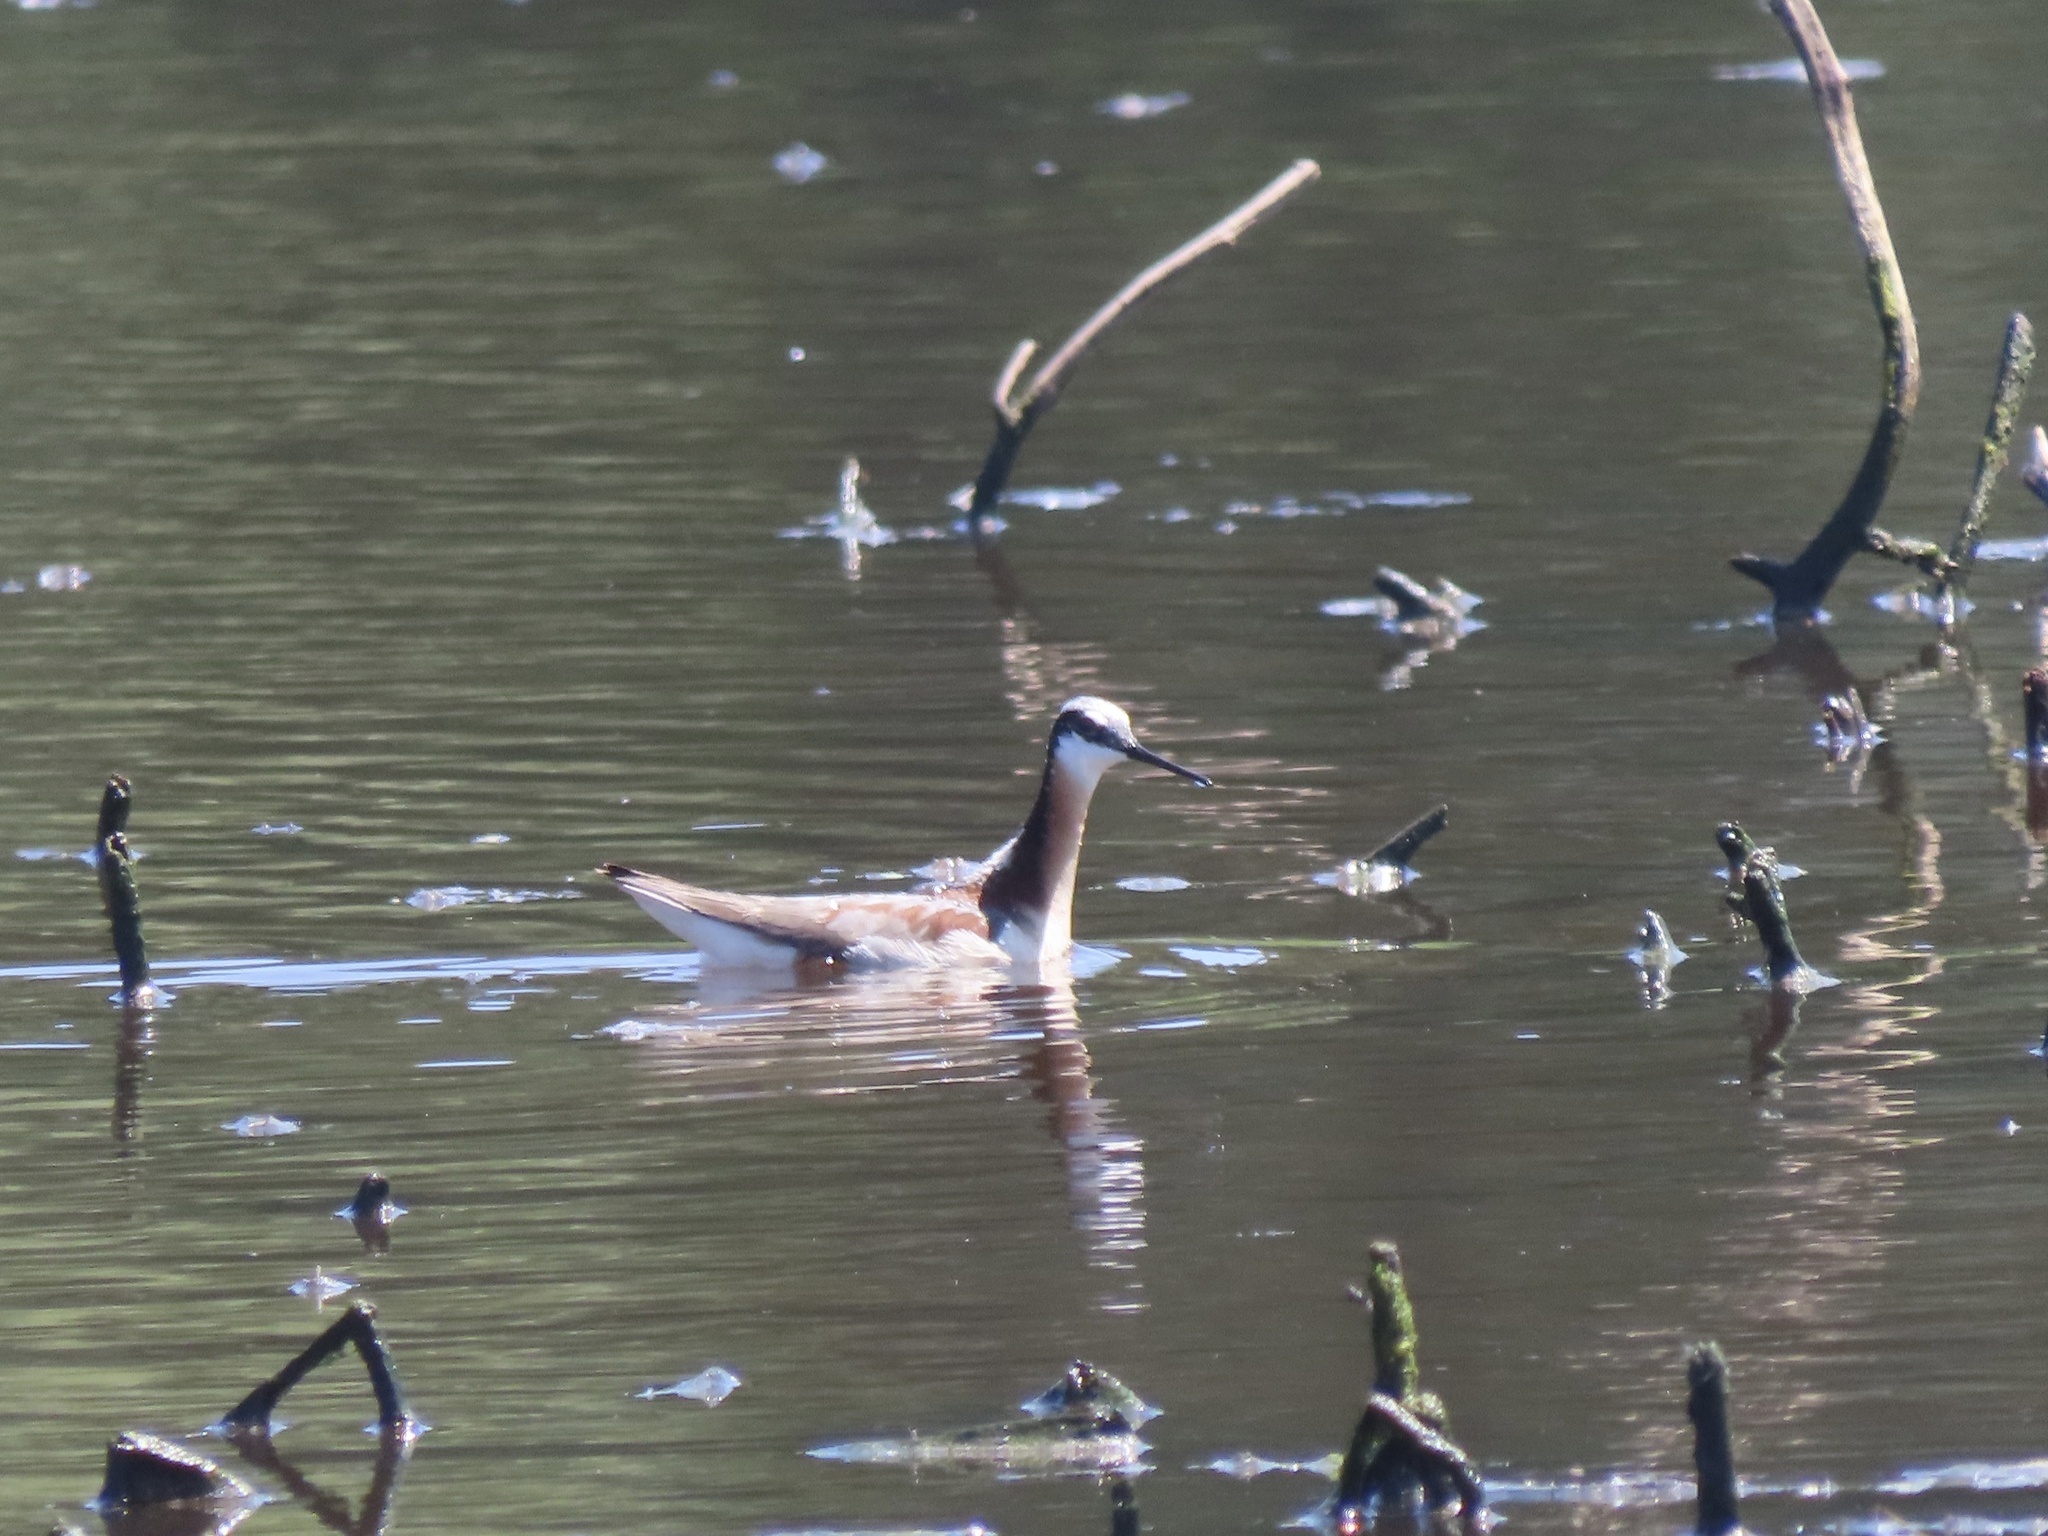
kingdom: Animalia
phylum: Chordata
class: Aves
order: Charadriiformes
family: Scolopacidae
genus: Phalaropus
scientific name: Phalaropus tricolor
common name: Wilson's phalarope
